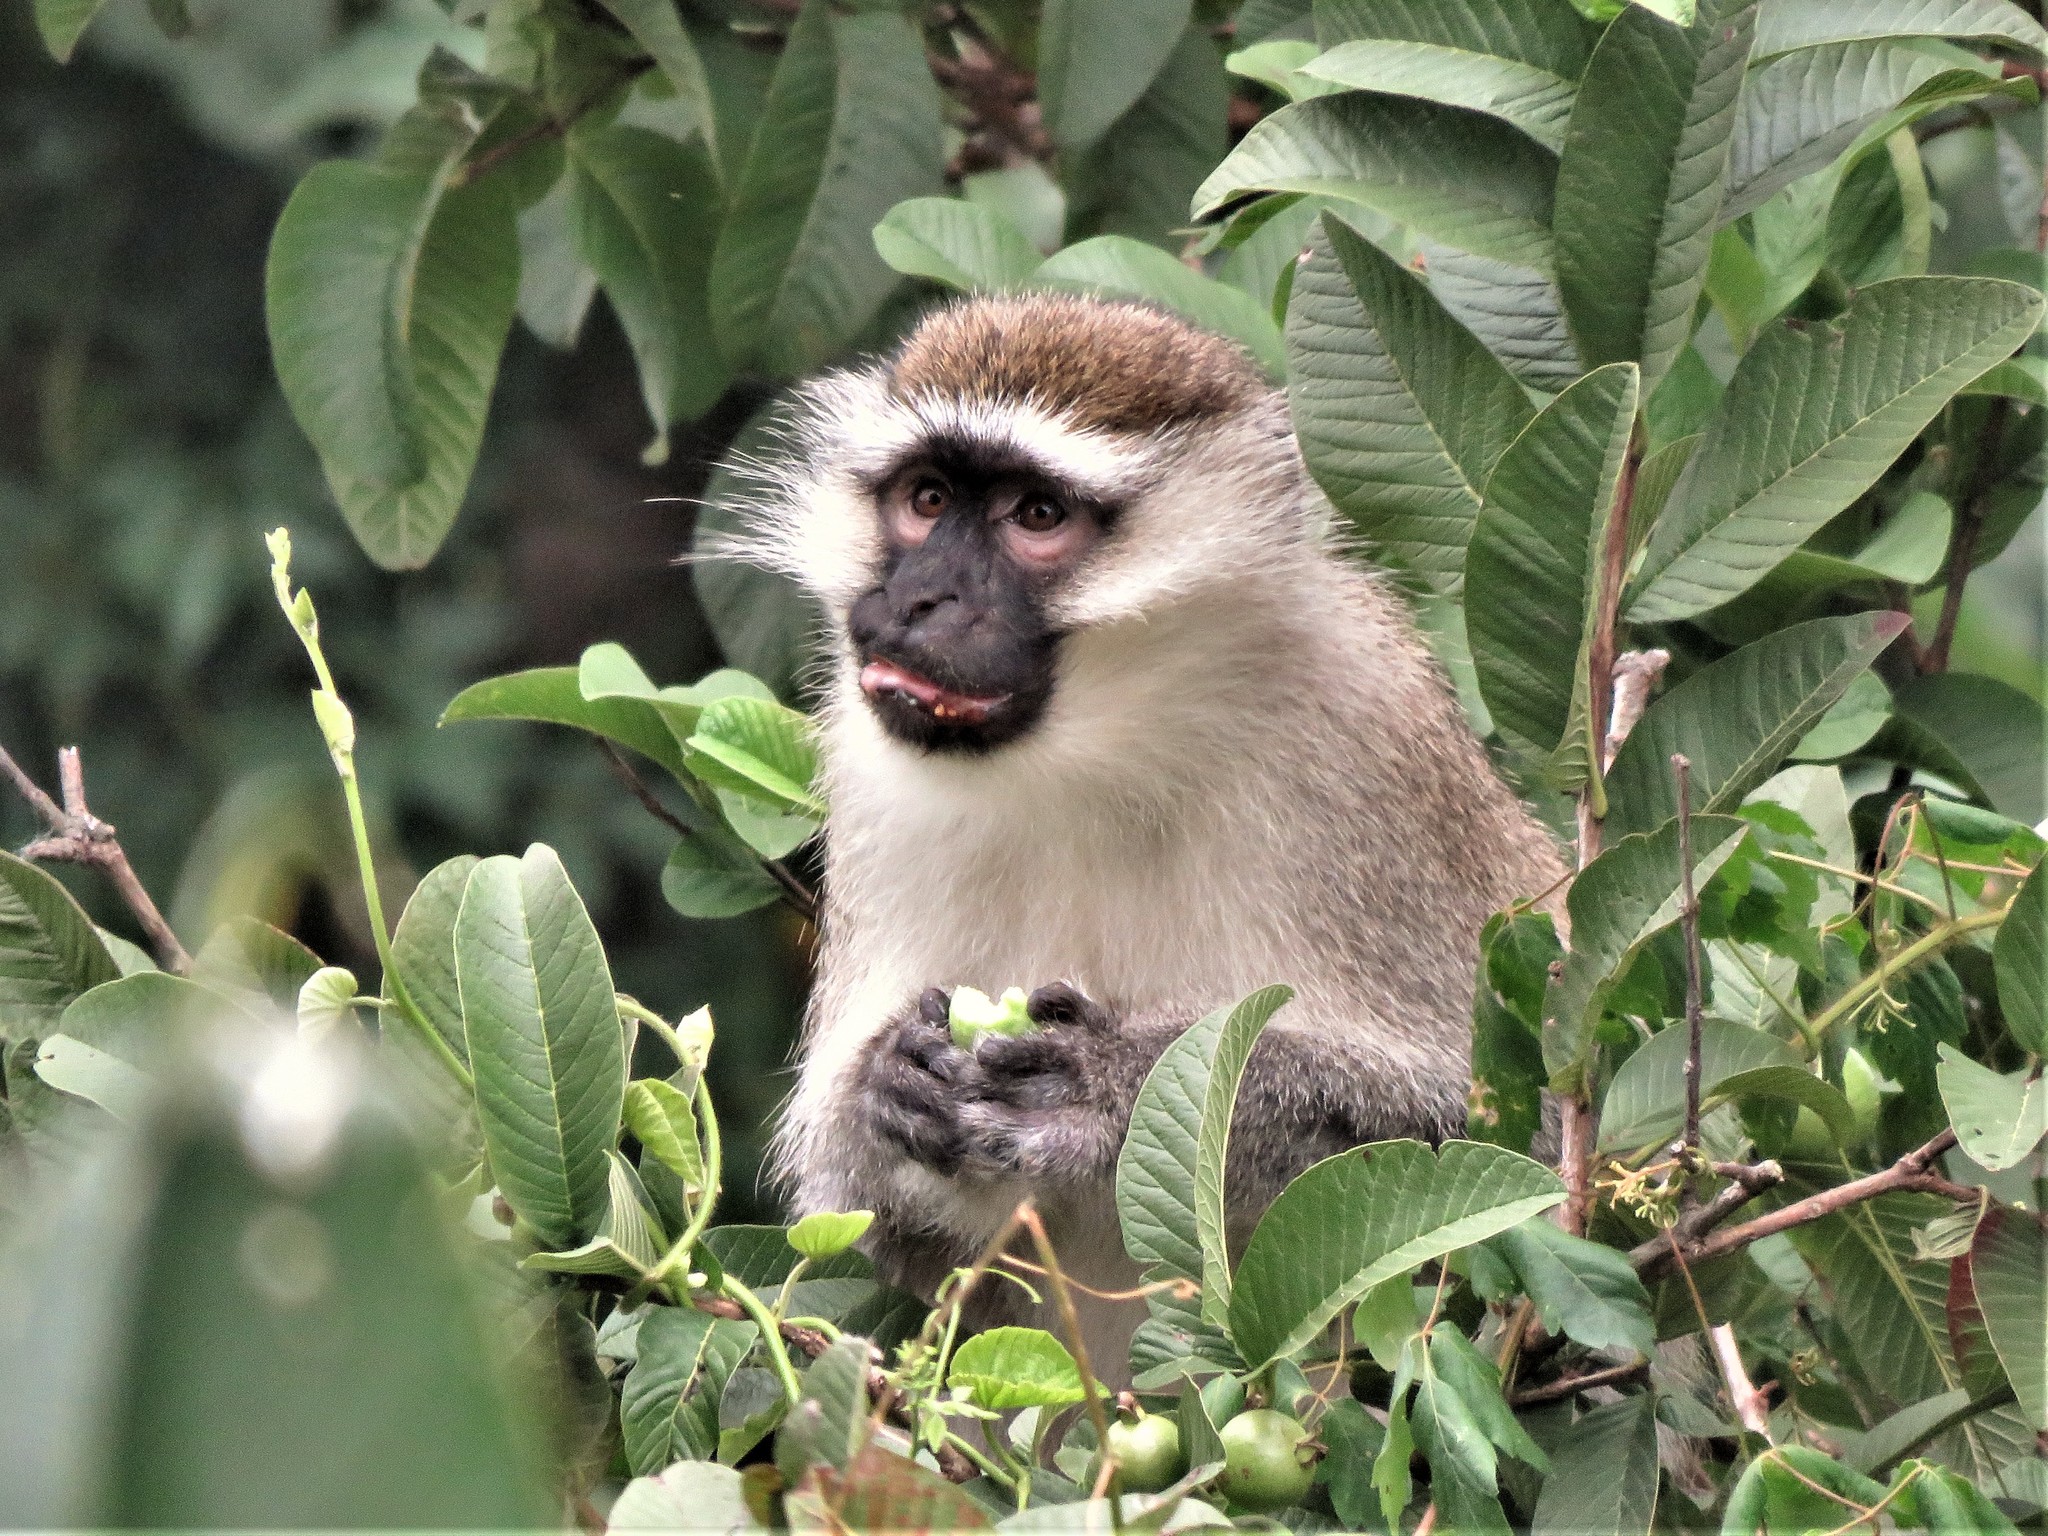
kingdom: Animalia
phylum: Chordata
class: Mammalia
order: Primates
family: Cercopithecidae
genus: Chlorocebus
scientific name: Chlorocebus tantalus
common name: Tantalus monkey
